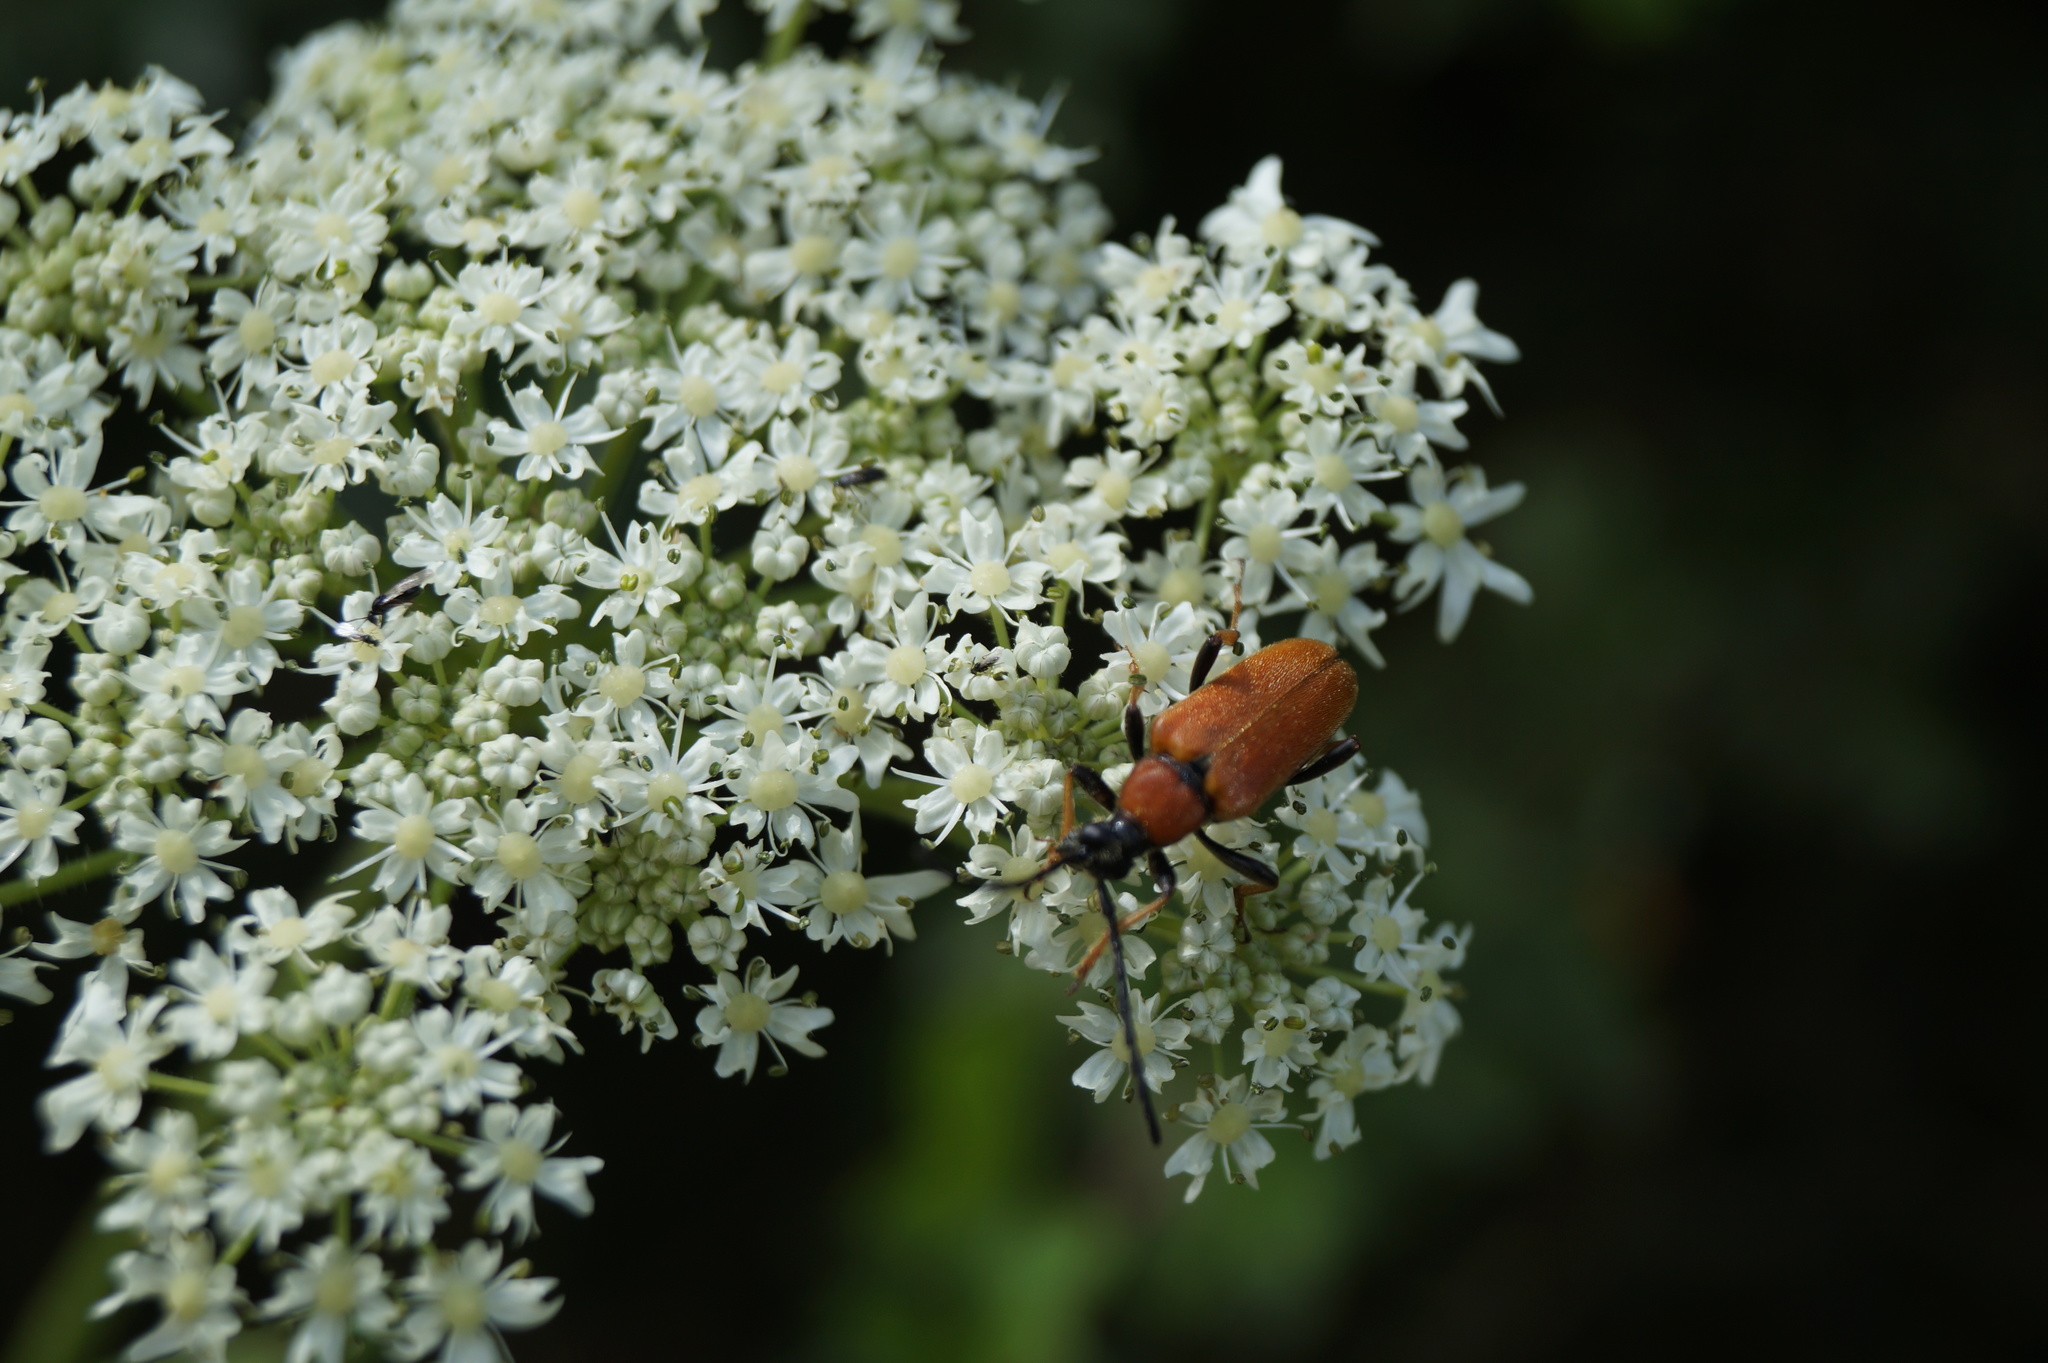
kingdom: Animalia
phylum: Arthropoda
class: Insecta
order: Coleoptera
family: Cerambycidae
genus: Stictoleptura
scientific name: Stictoleptura rubra
